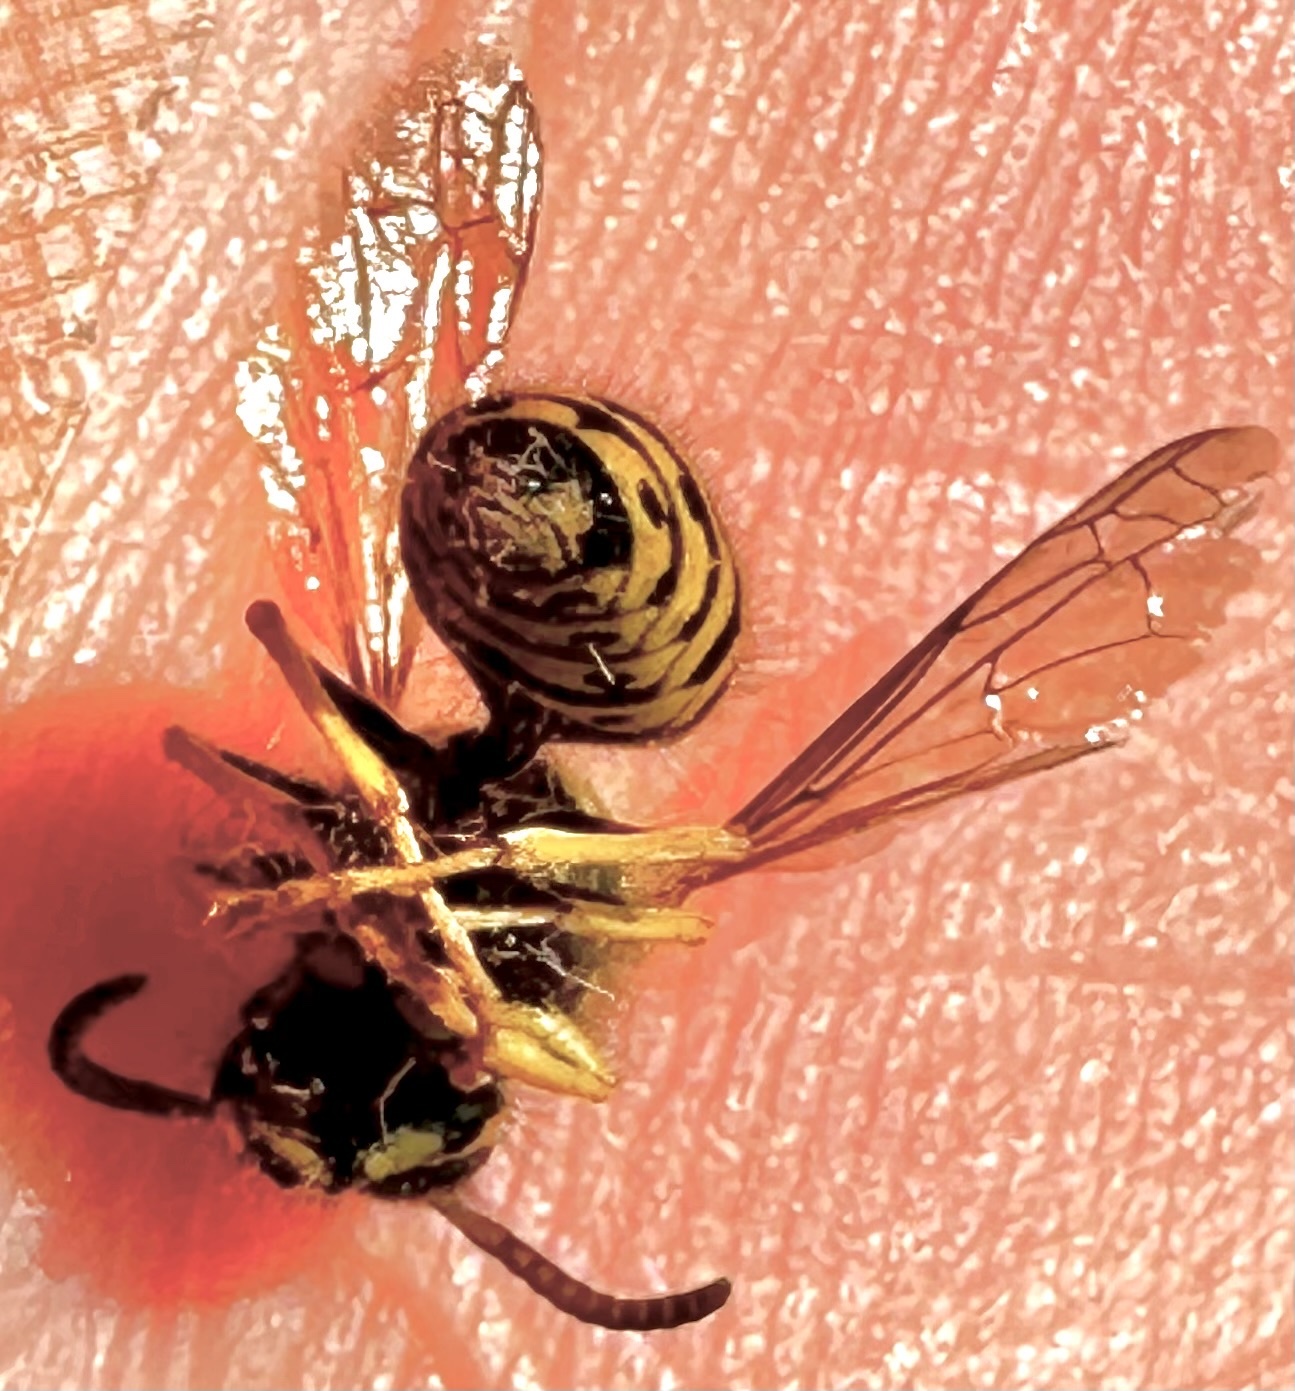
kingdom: Animalia
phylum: Arthropoda
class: Insecta
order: Hymenoptera
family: Vespidae
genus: Dolichovespula
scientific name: Dolichovespula arenaria
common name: Aerial yellowjacket
